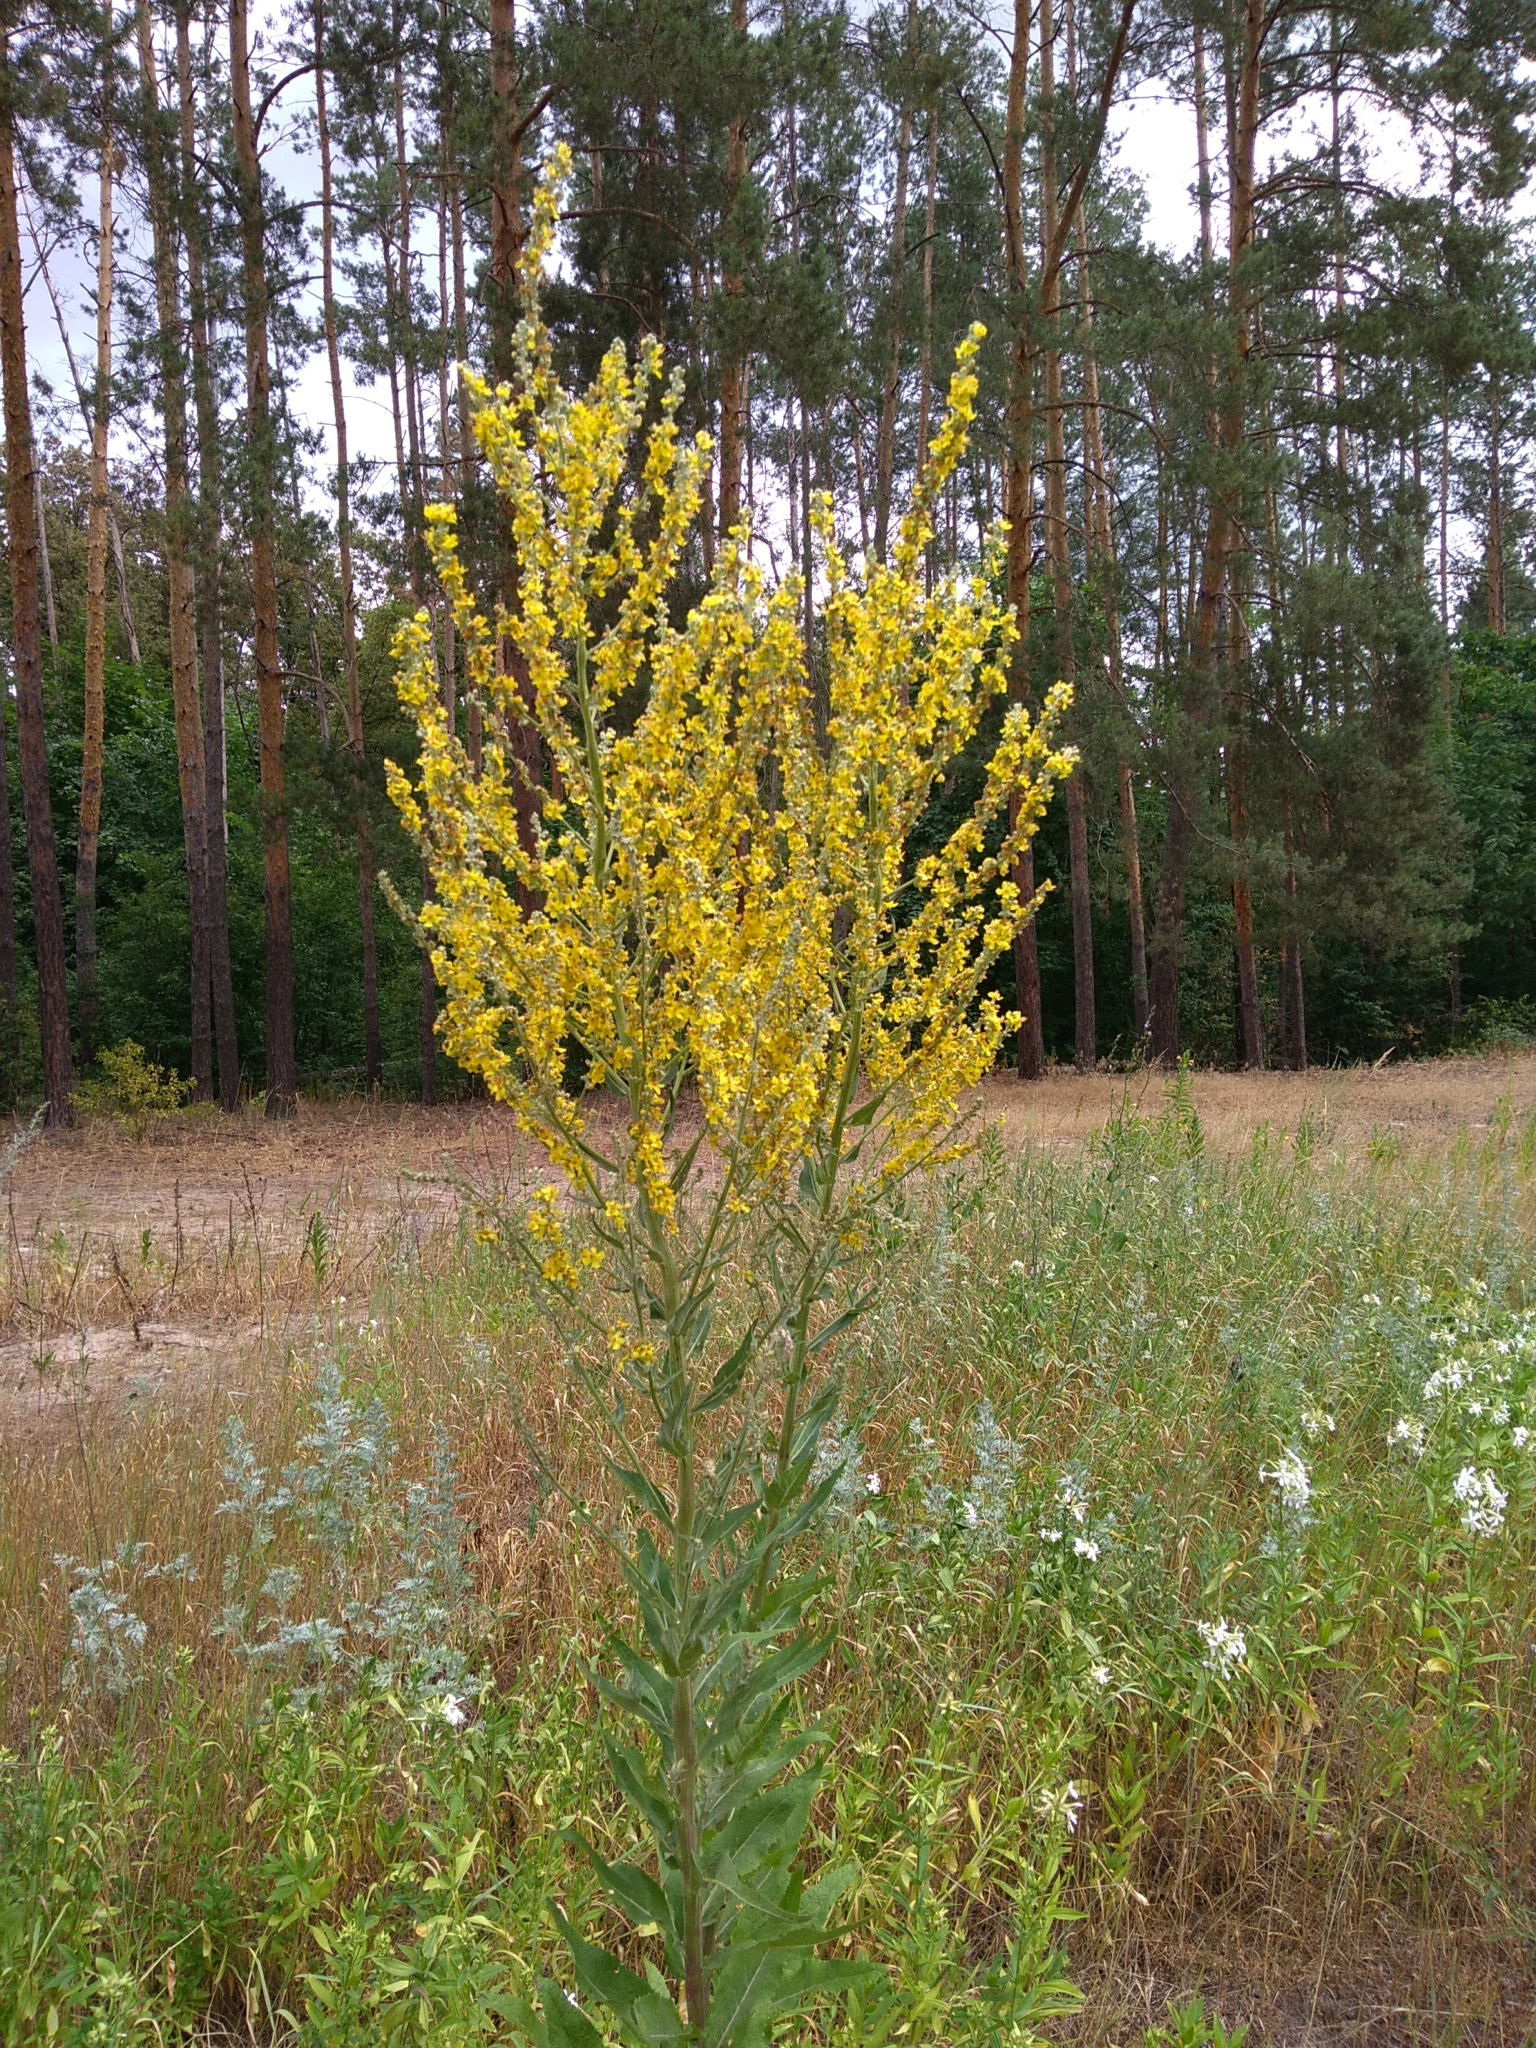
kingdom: Plantae
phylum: Tracheophyta
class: Magnoliopsida
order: Lamiales
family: Scrophulariaceae
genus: Verbascum
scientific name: Verbascum lychnitis
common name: White mullein
